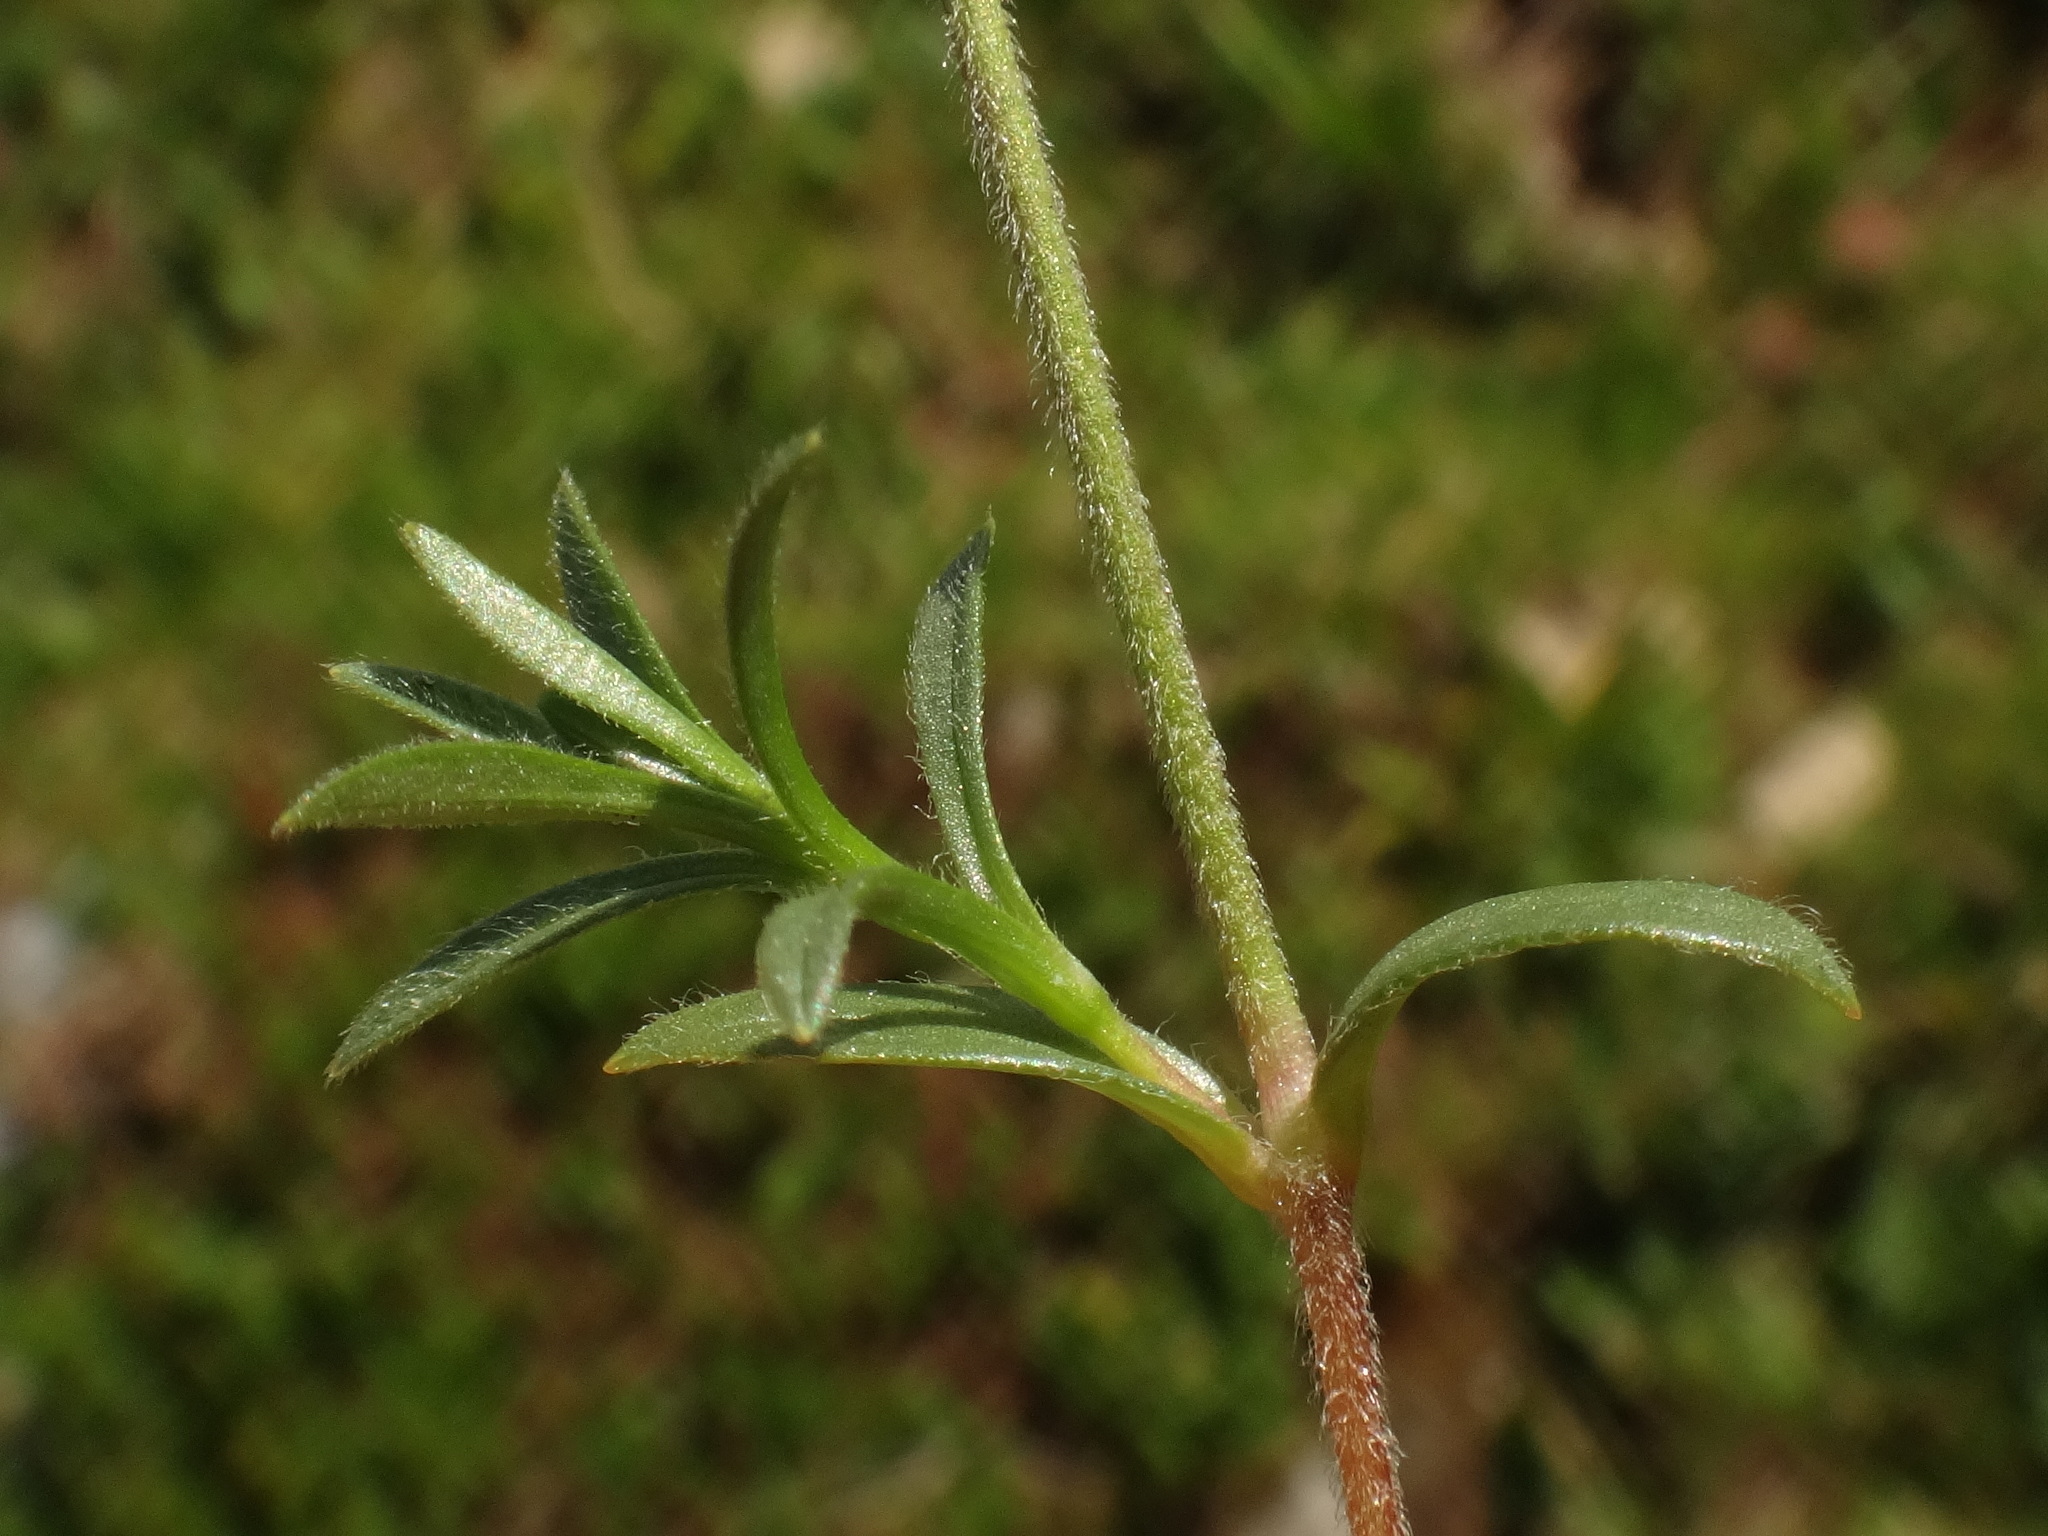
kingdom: Plantae
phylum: Tracheophyta
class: Magnoliopsida
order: Caryophyllales
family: Caryophyllaceae
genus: Cerastium
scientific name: Cerastium elongatum
